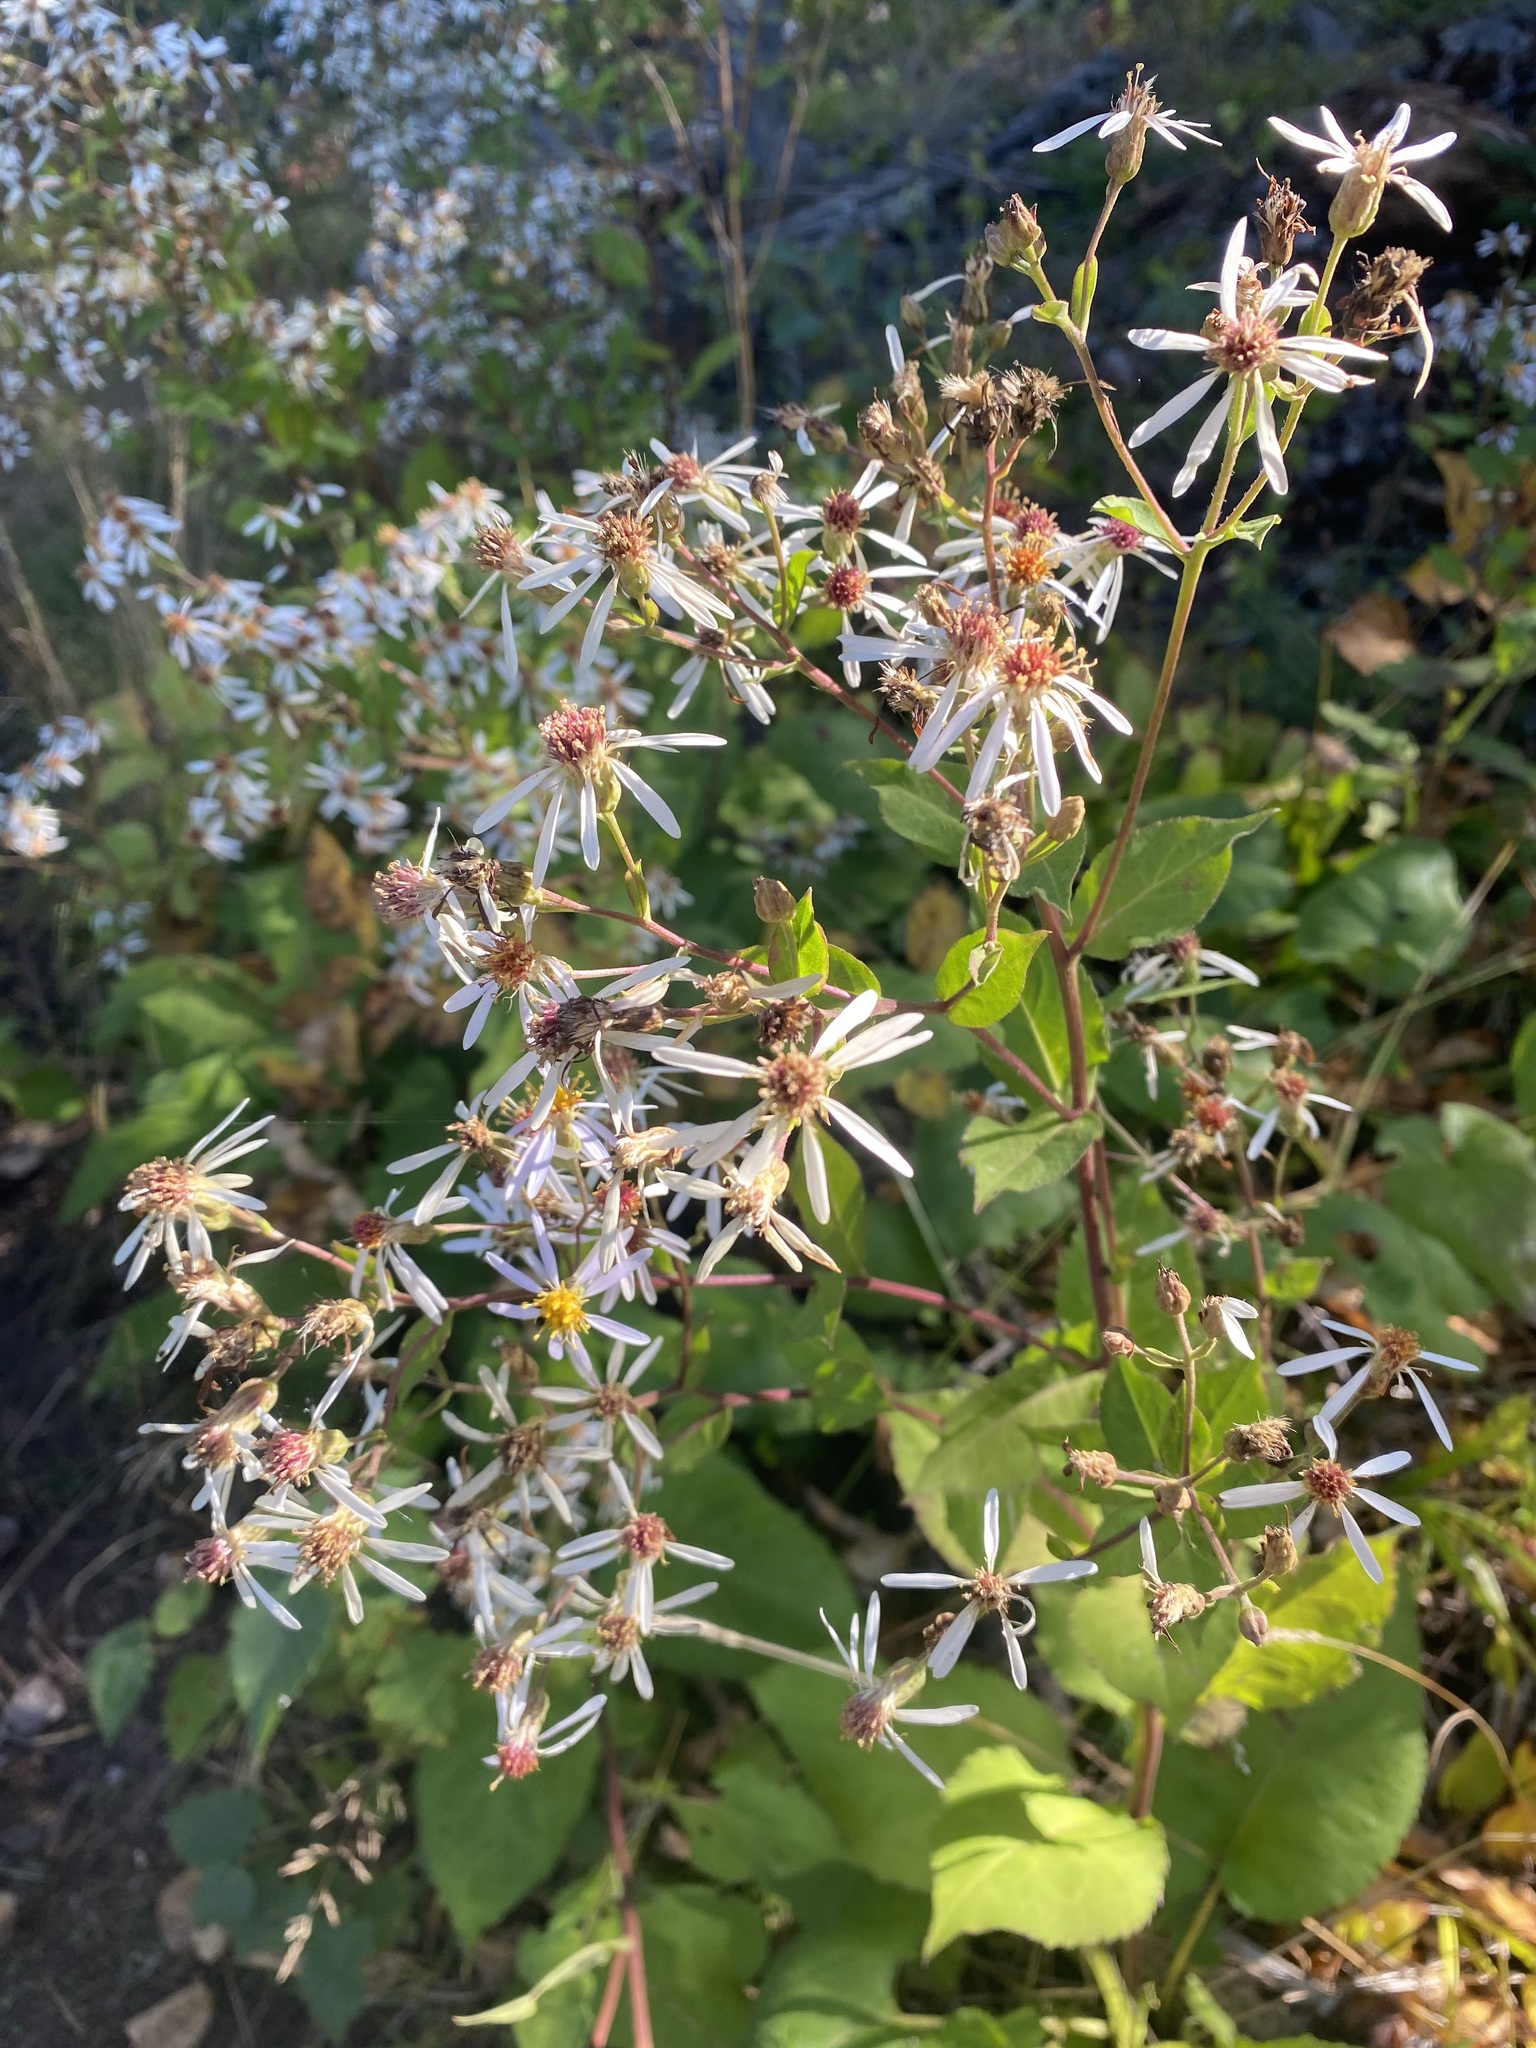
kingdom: Plantae
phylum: Tracheophyta
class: Magnoliopsida
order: Asterales
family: Asteraceae
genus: Eurybia
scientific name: Eurybia macrophylla
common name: Big-leaved aster
